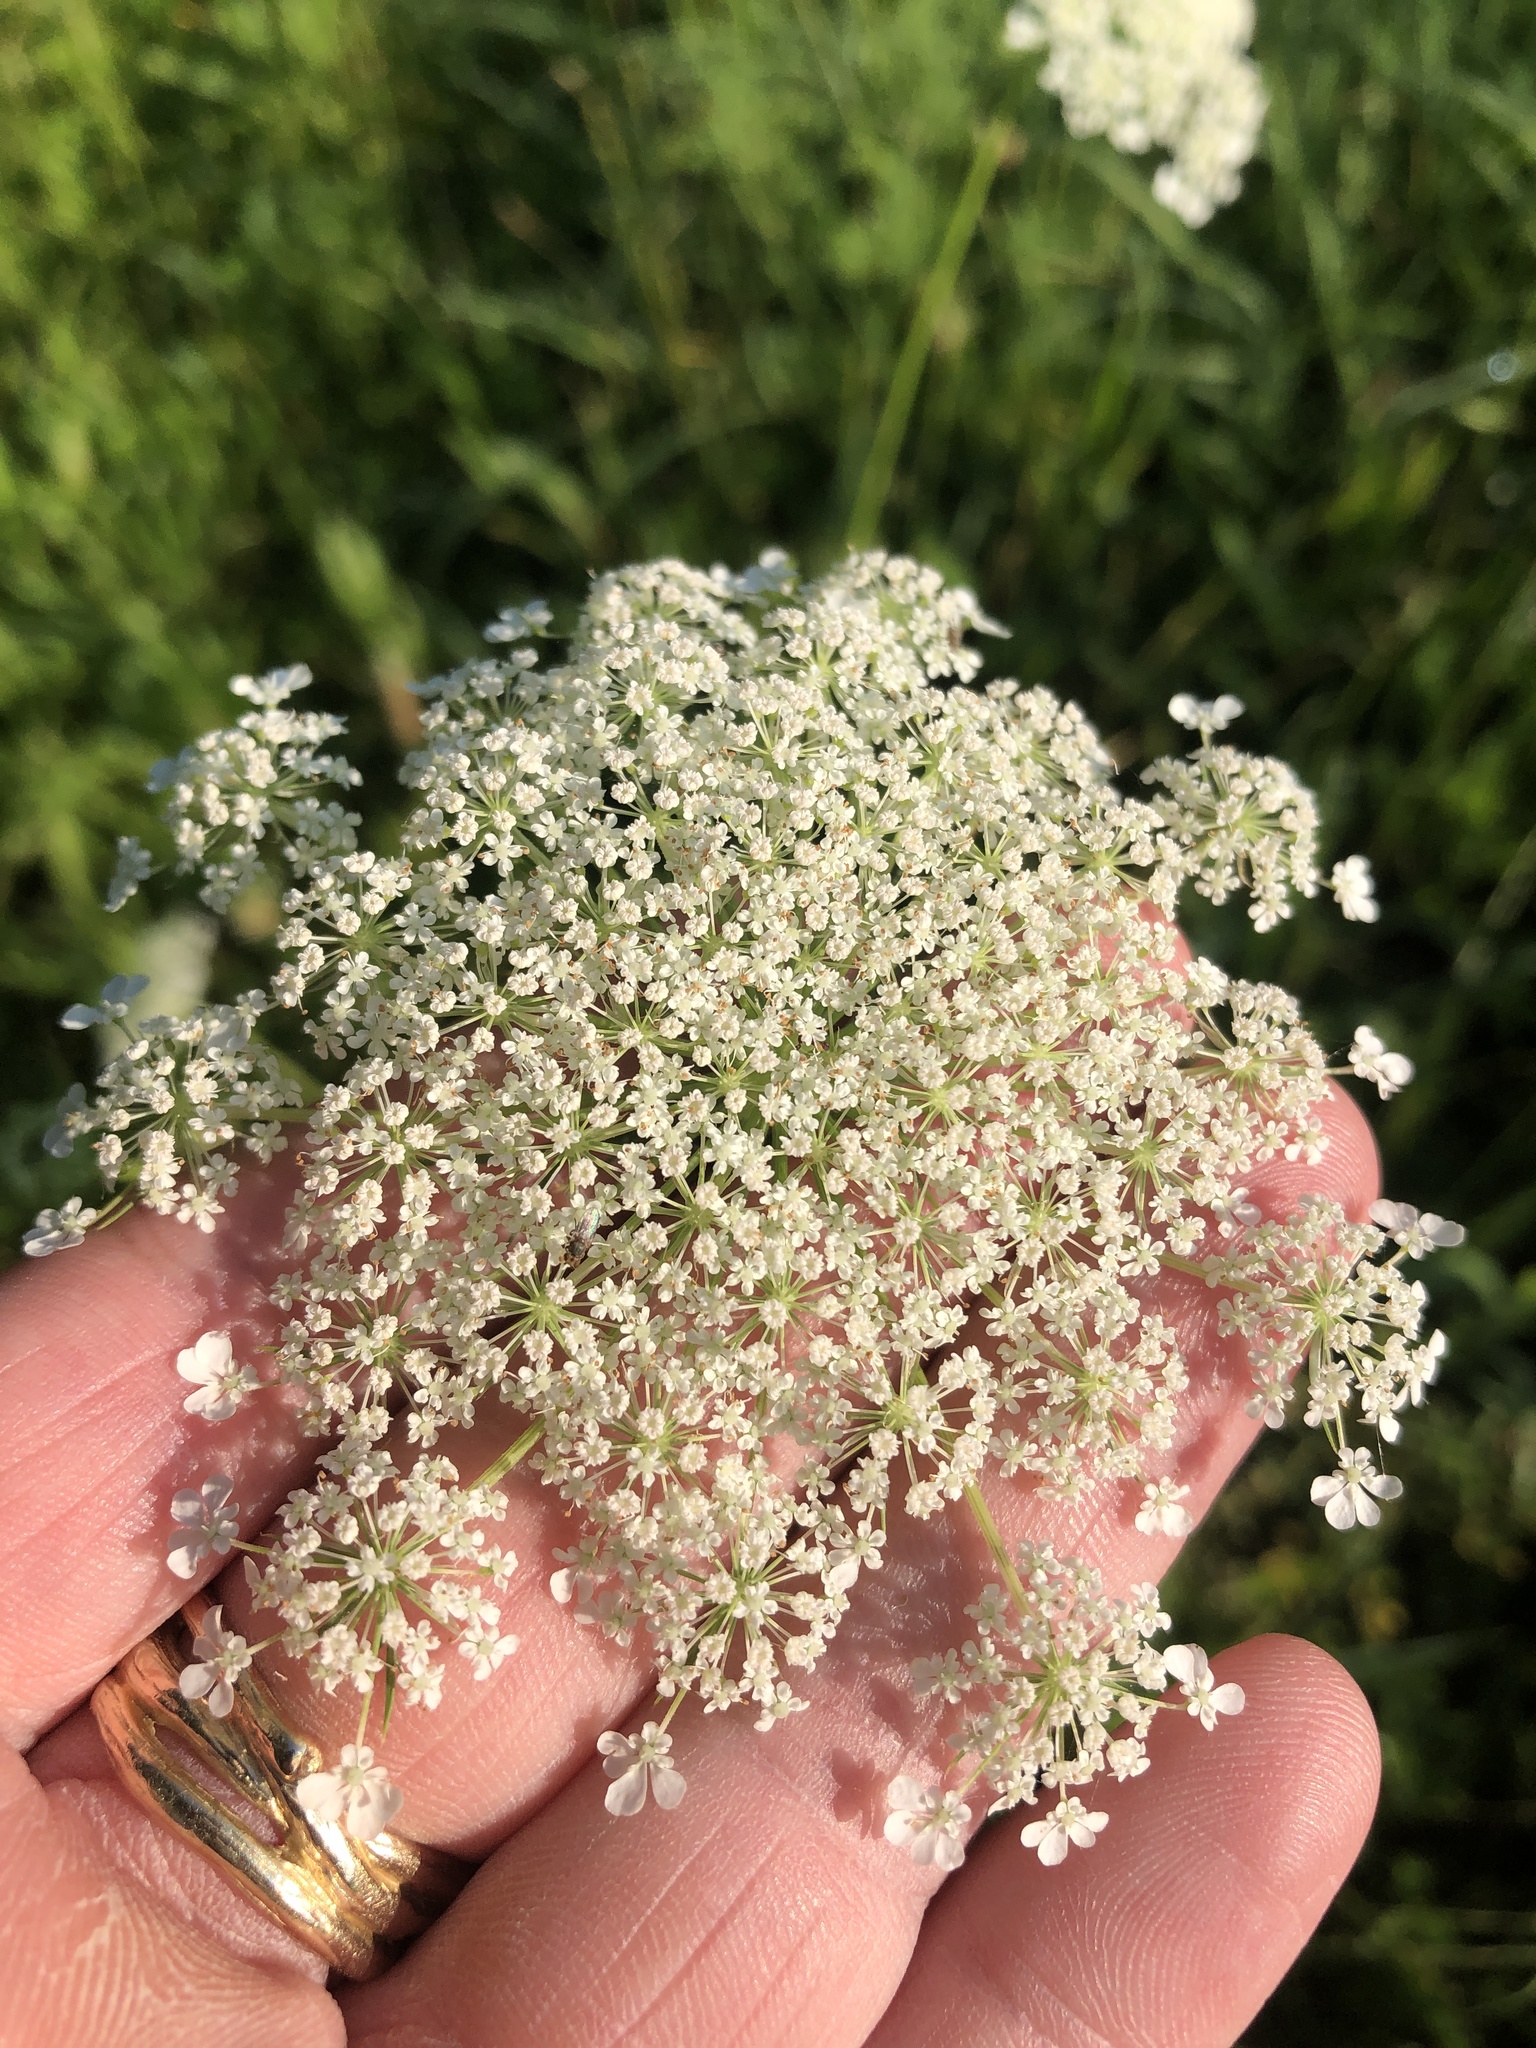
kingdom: Plantae
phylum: Tracheophyta
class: Magnoliopsida
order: Apiales
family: Apiaceae
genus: Daucus
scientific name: Daucus carota
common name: Wild carrot
